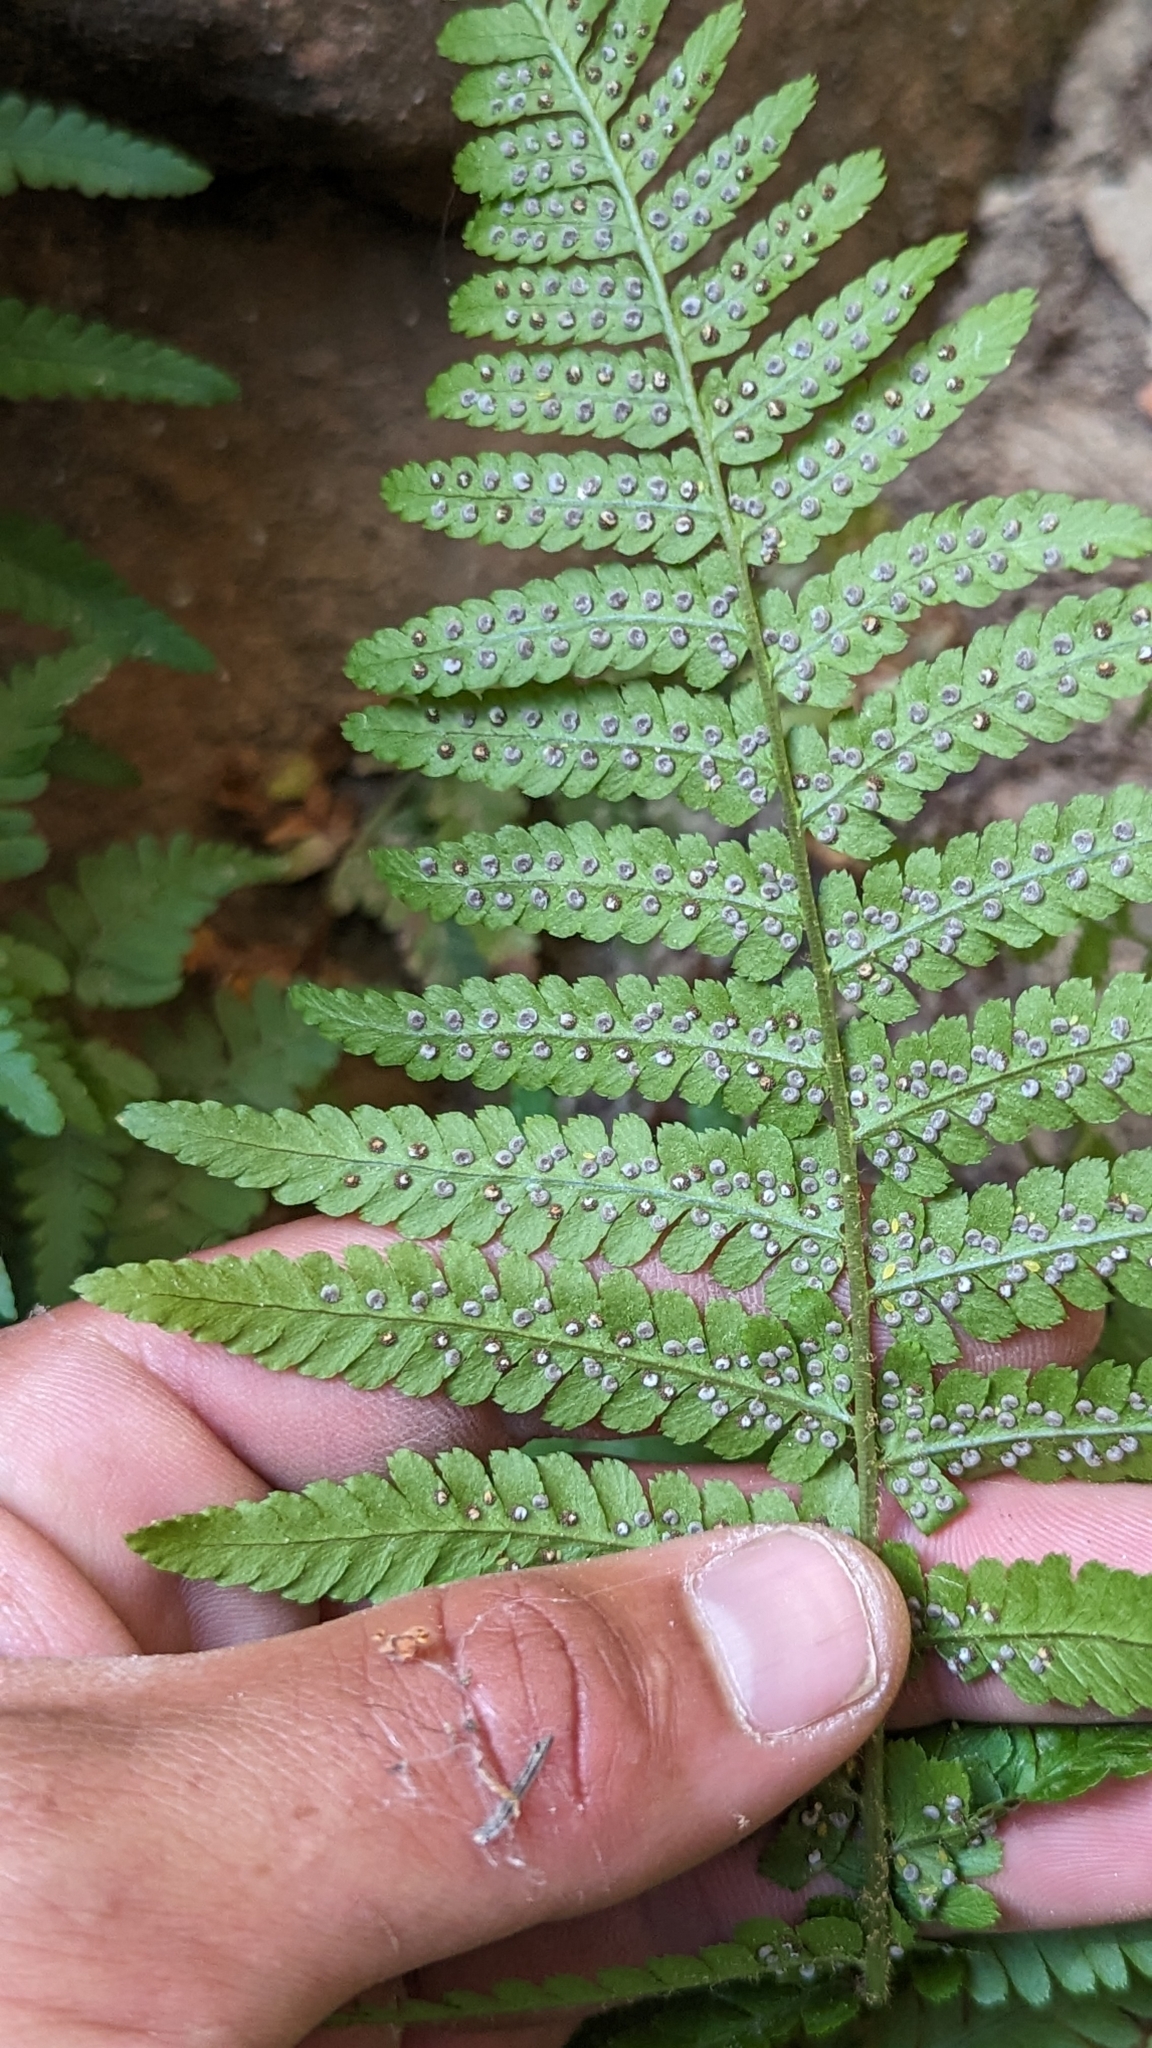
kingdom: Plantae
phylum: Tracheophyta
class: Polypodiopsida
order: Polypodiales
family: Dryopteridaceae
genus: Dryopteris
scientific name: Dryopteris filix-mas
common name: Male fern
